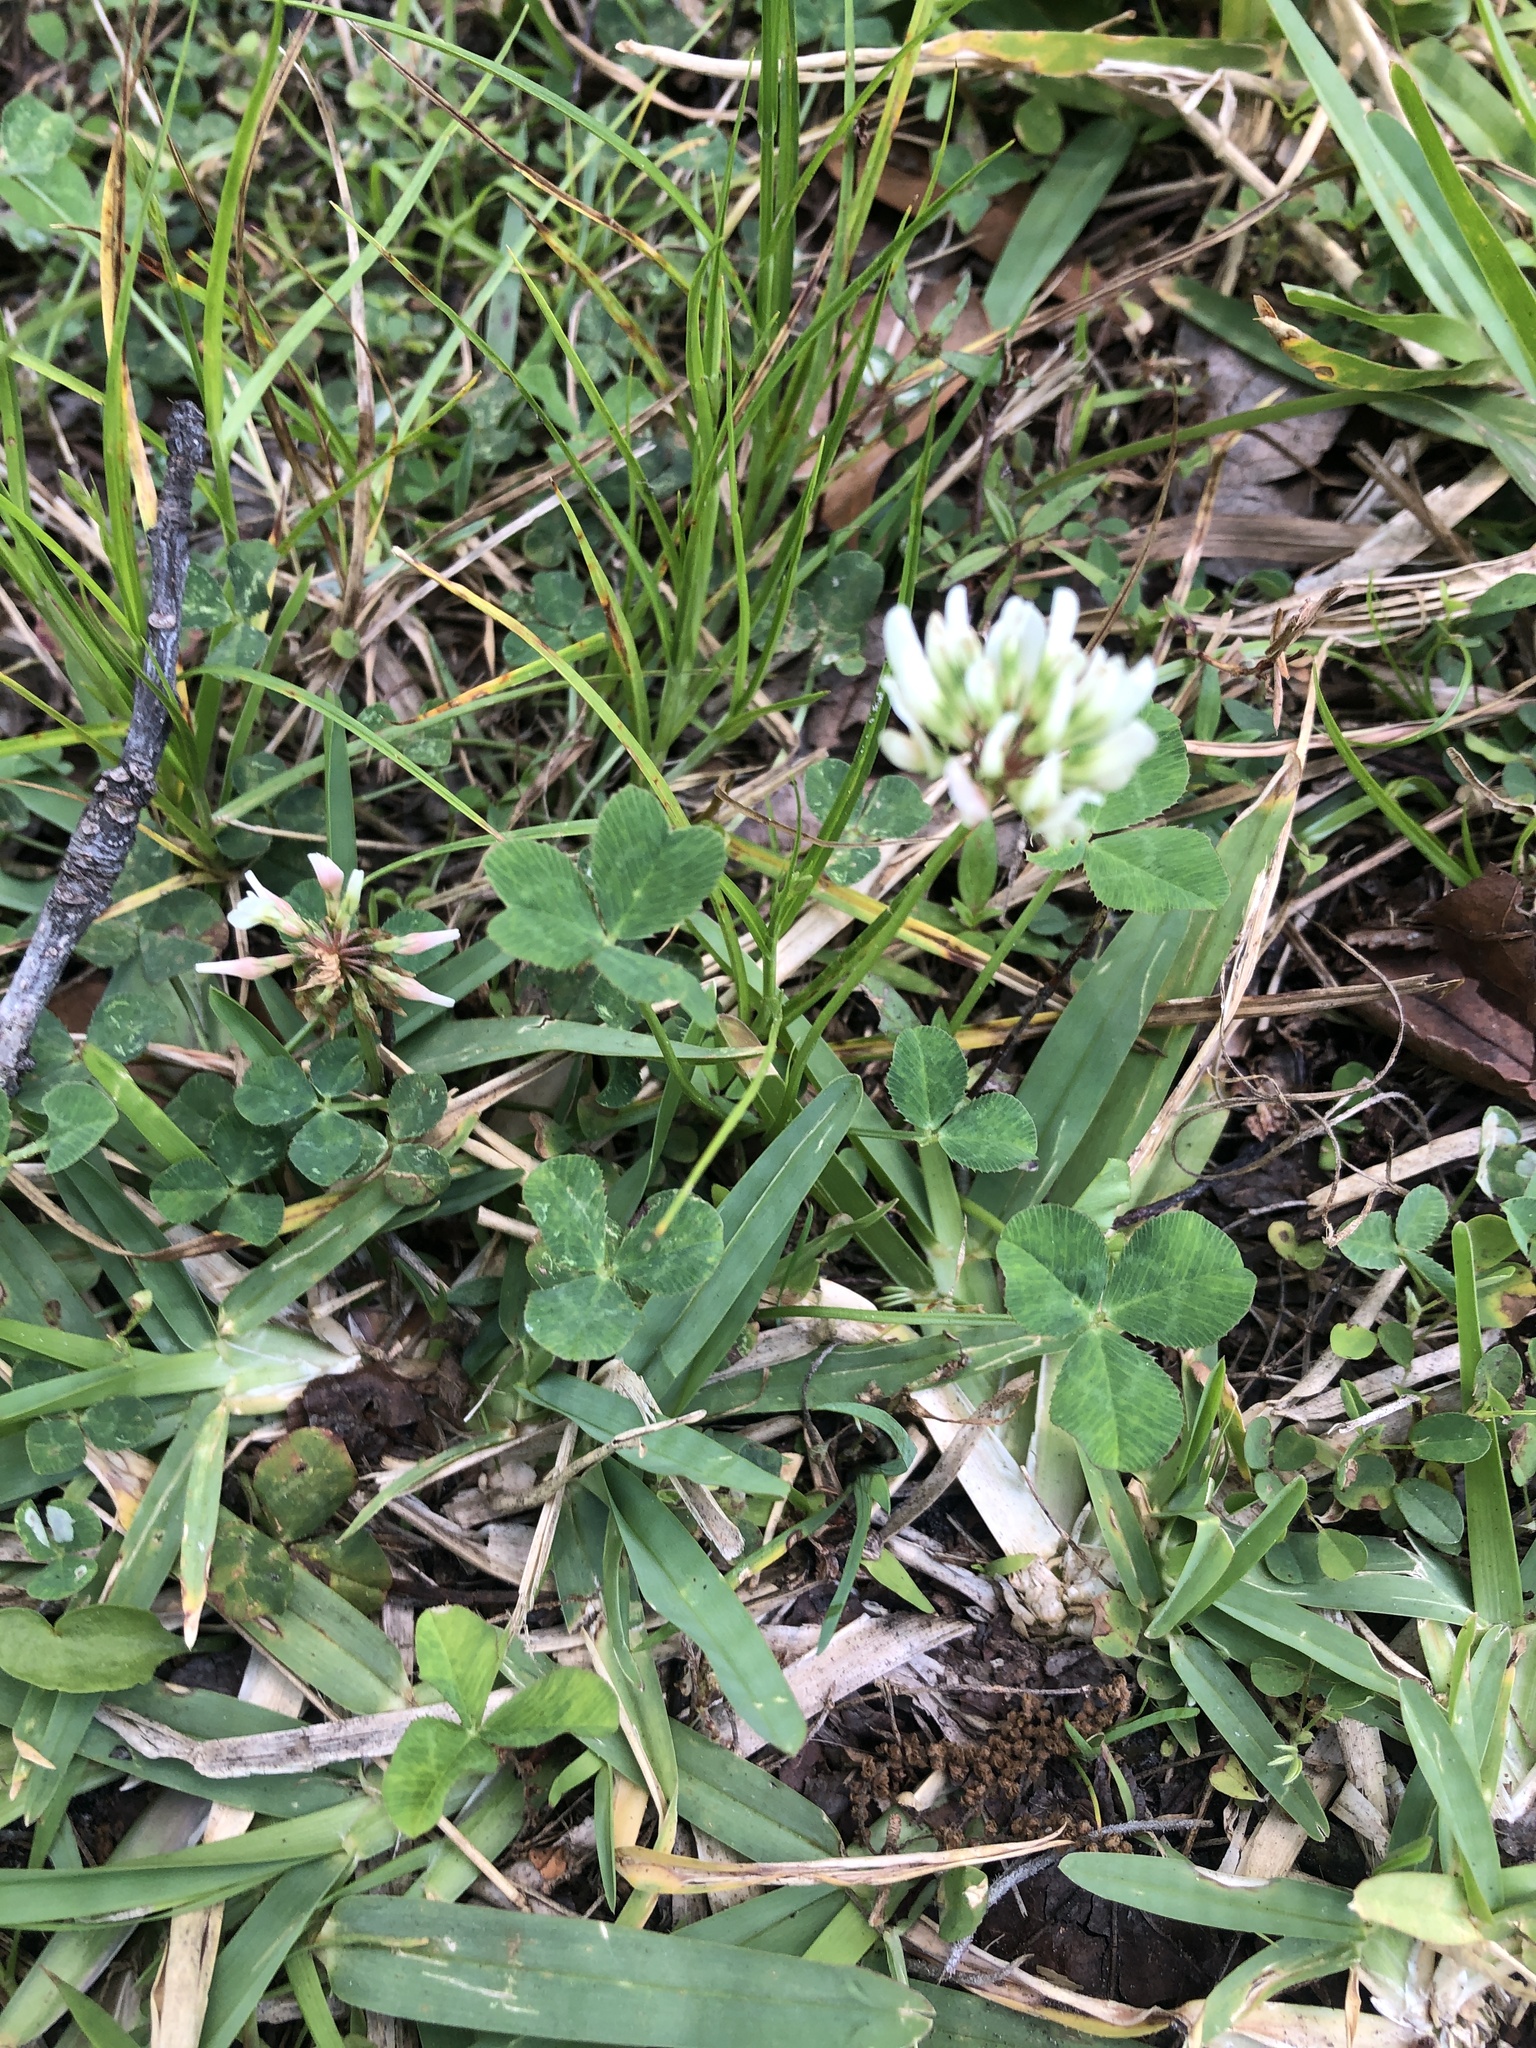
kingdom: Plantae
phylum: Tracheophyta
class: Magnoliopsida
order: Fabales
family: Fabaceae
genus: Trifolium
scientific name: Trifolium repens
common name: White clover
